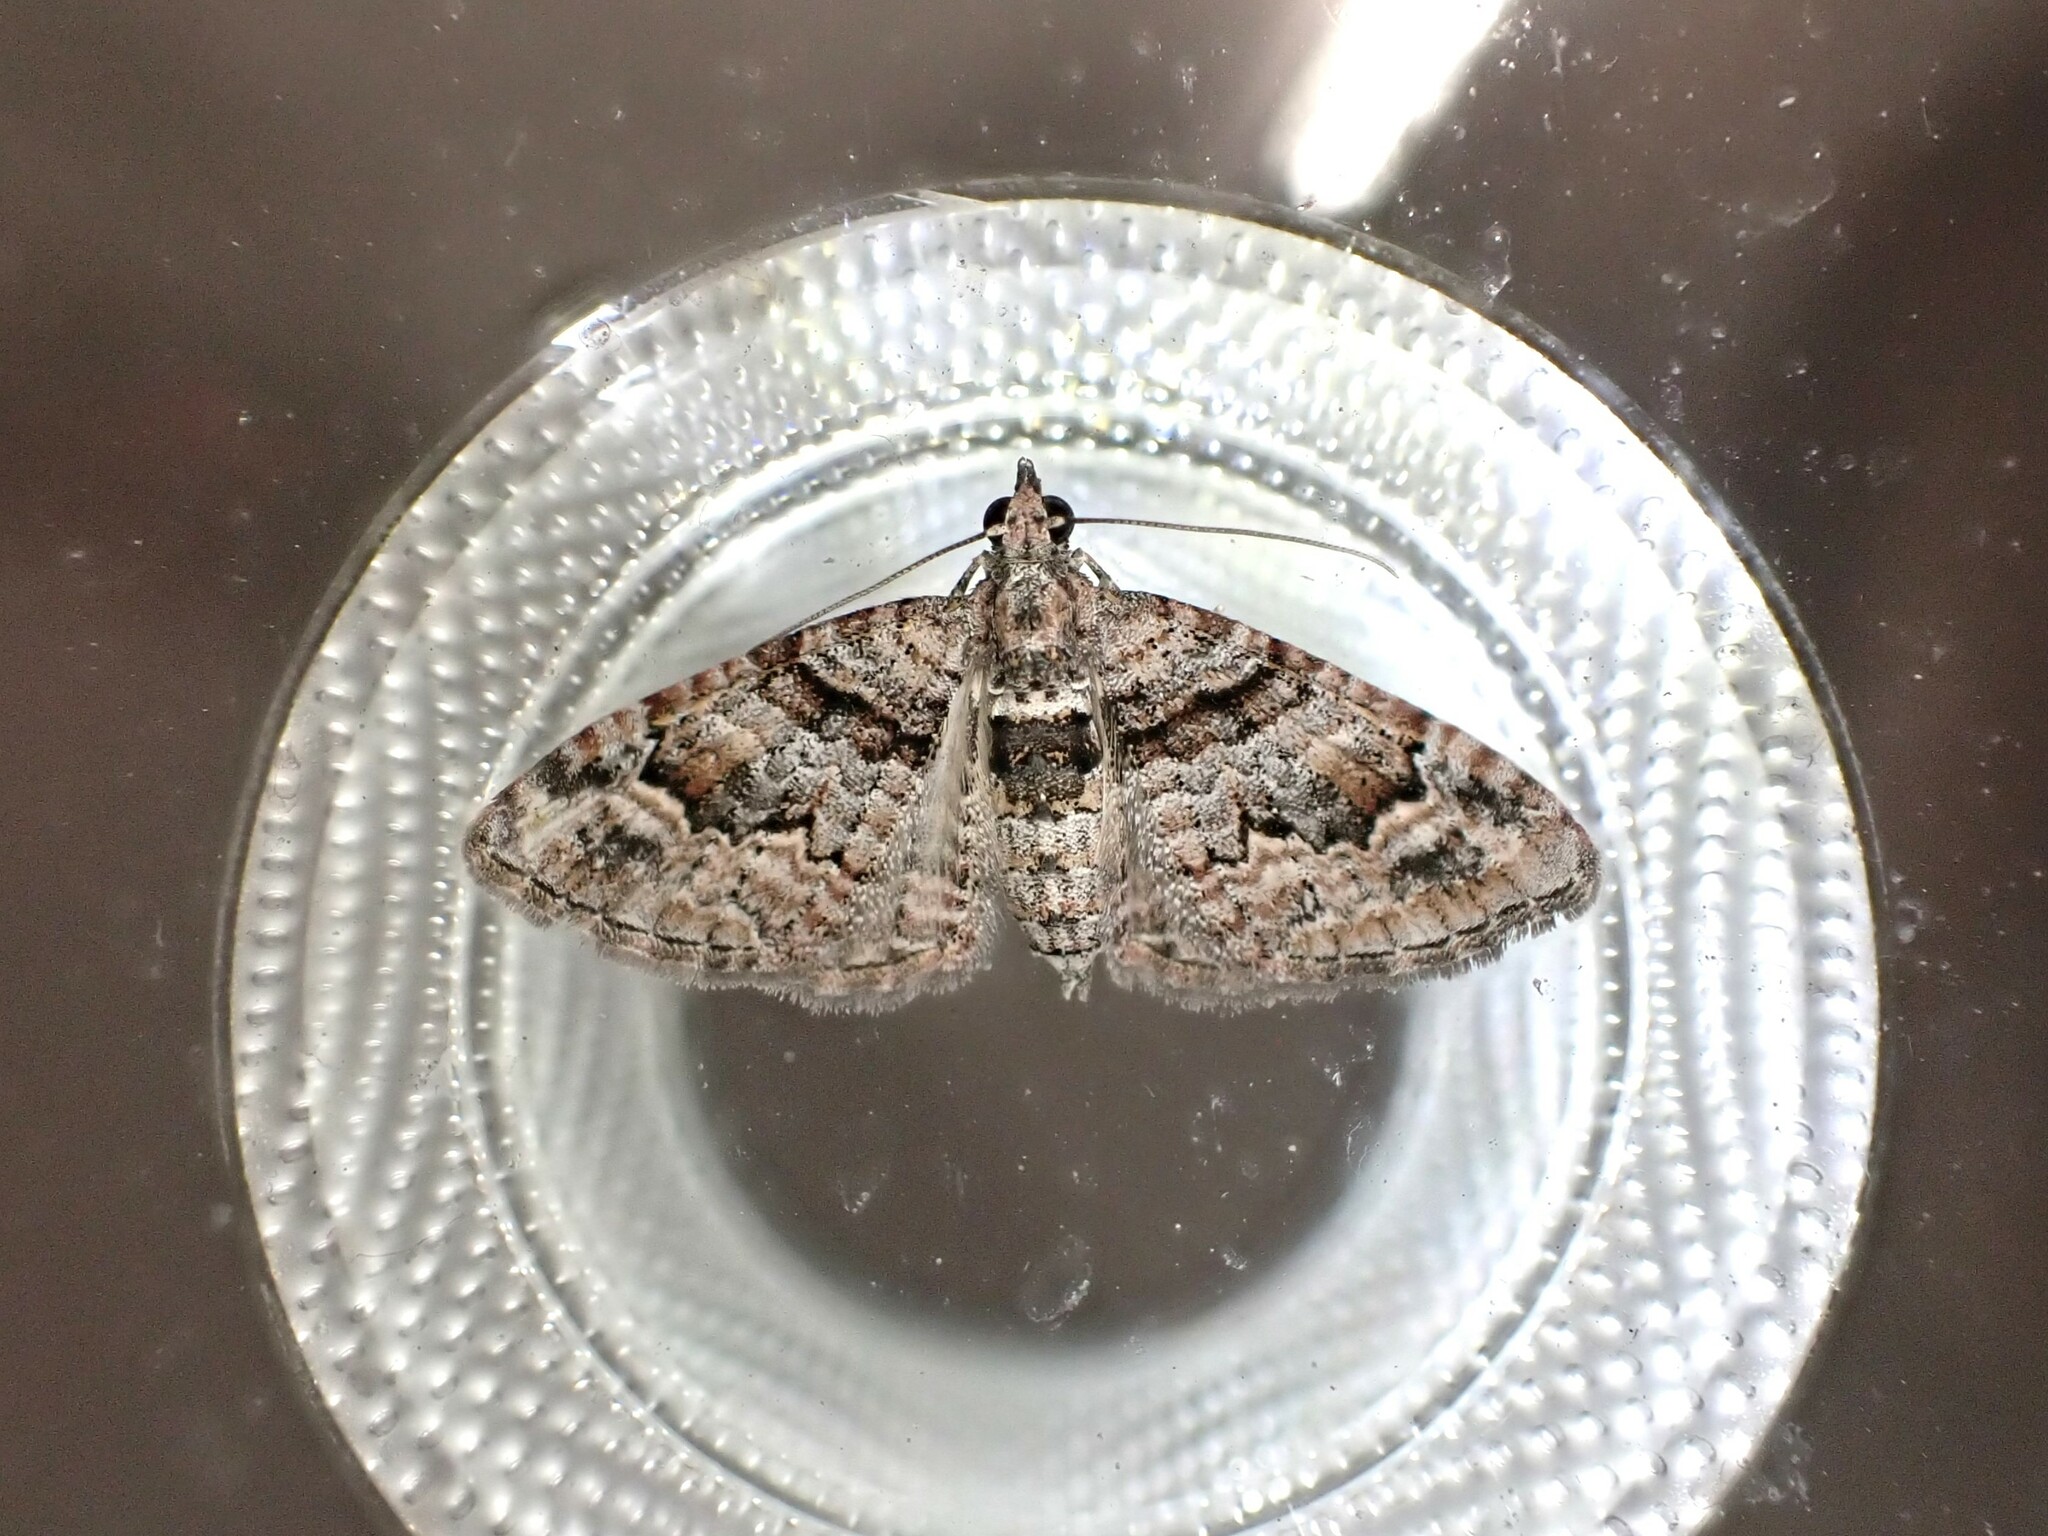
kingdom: Animalia
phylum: Arthropoda
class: Insecta
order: Lepidoptera
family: Geometridae
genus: Phrissogonus
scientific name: Phrissogonus laticostata
